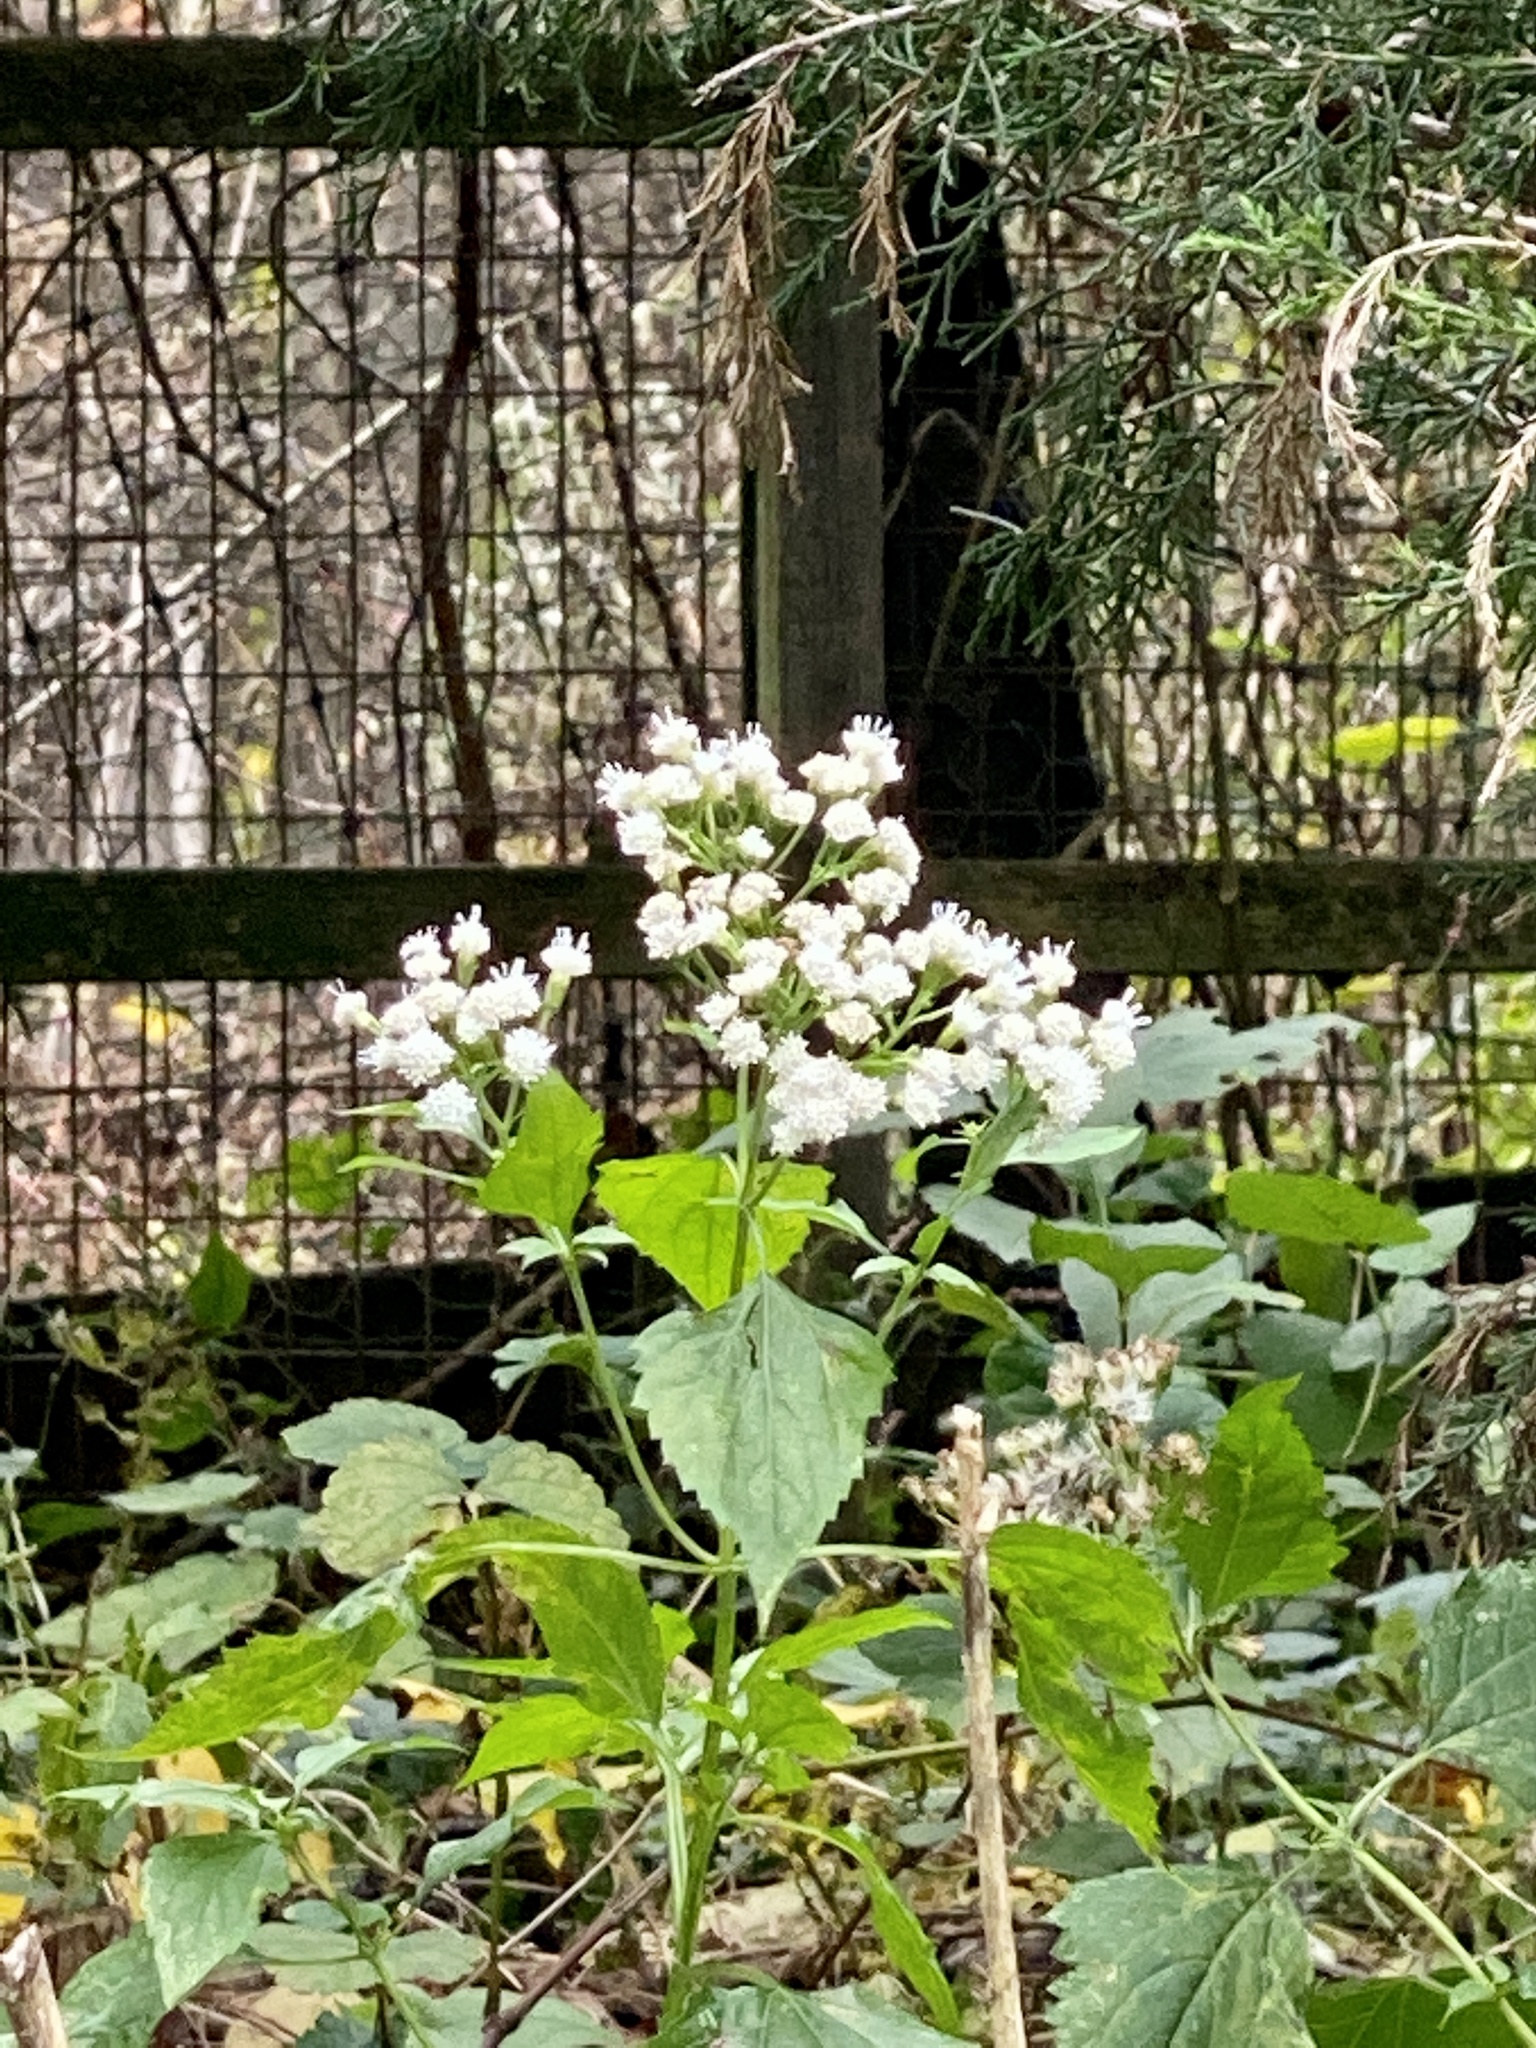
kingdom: Plantae
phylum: Tracheophyta
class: Magnoliopsida
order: Asterales
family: Asteraceae
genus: Ageratina
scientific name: Ageratina altissima
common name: White snakeroot
